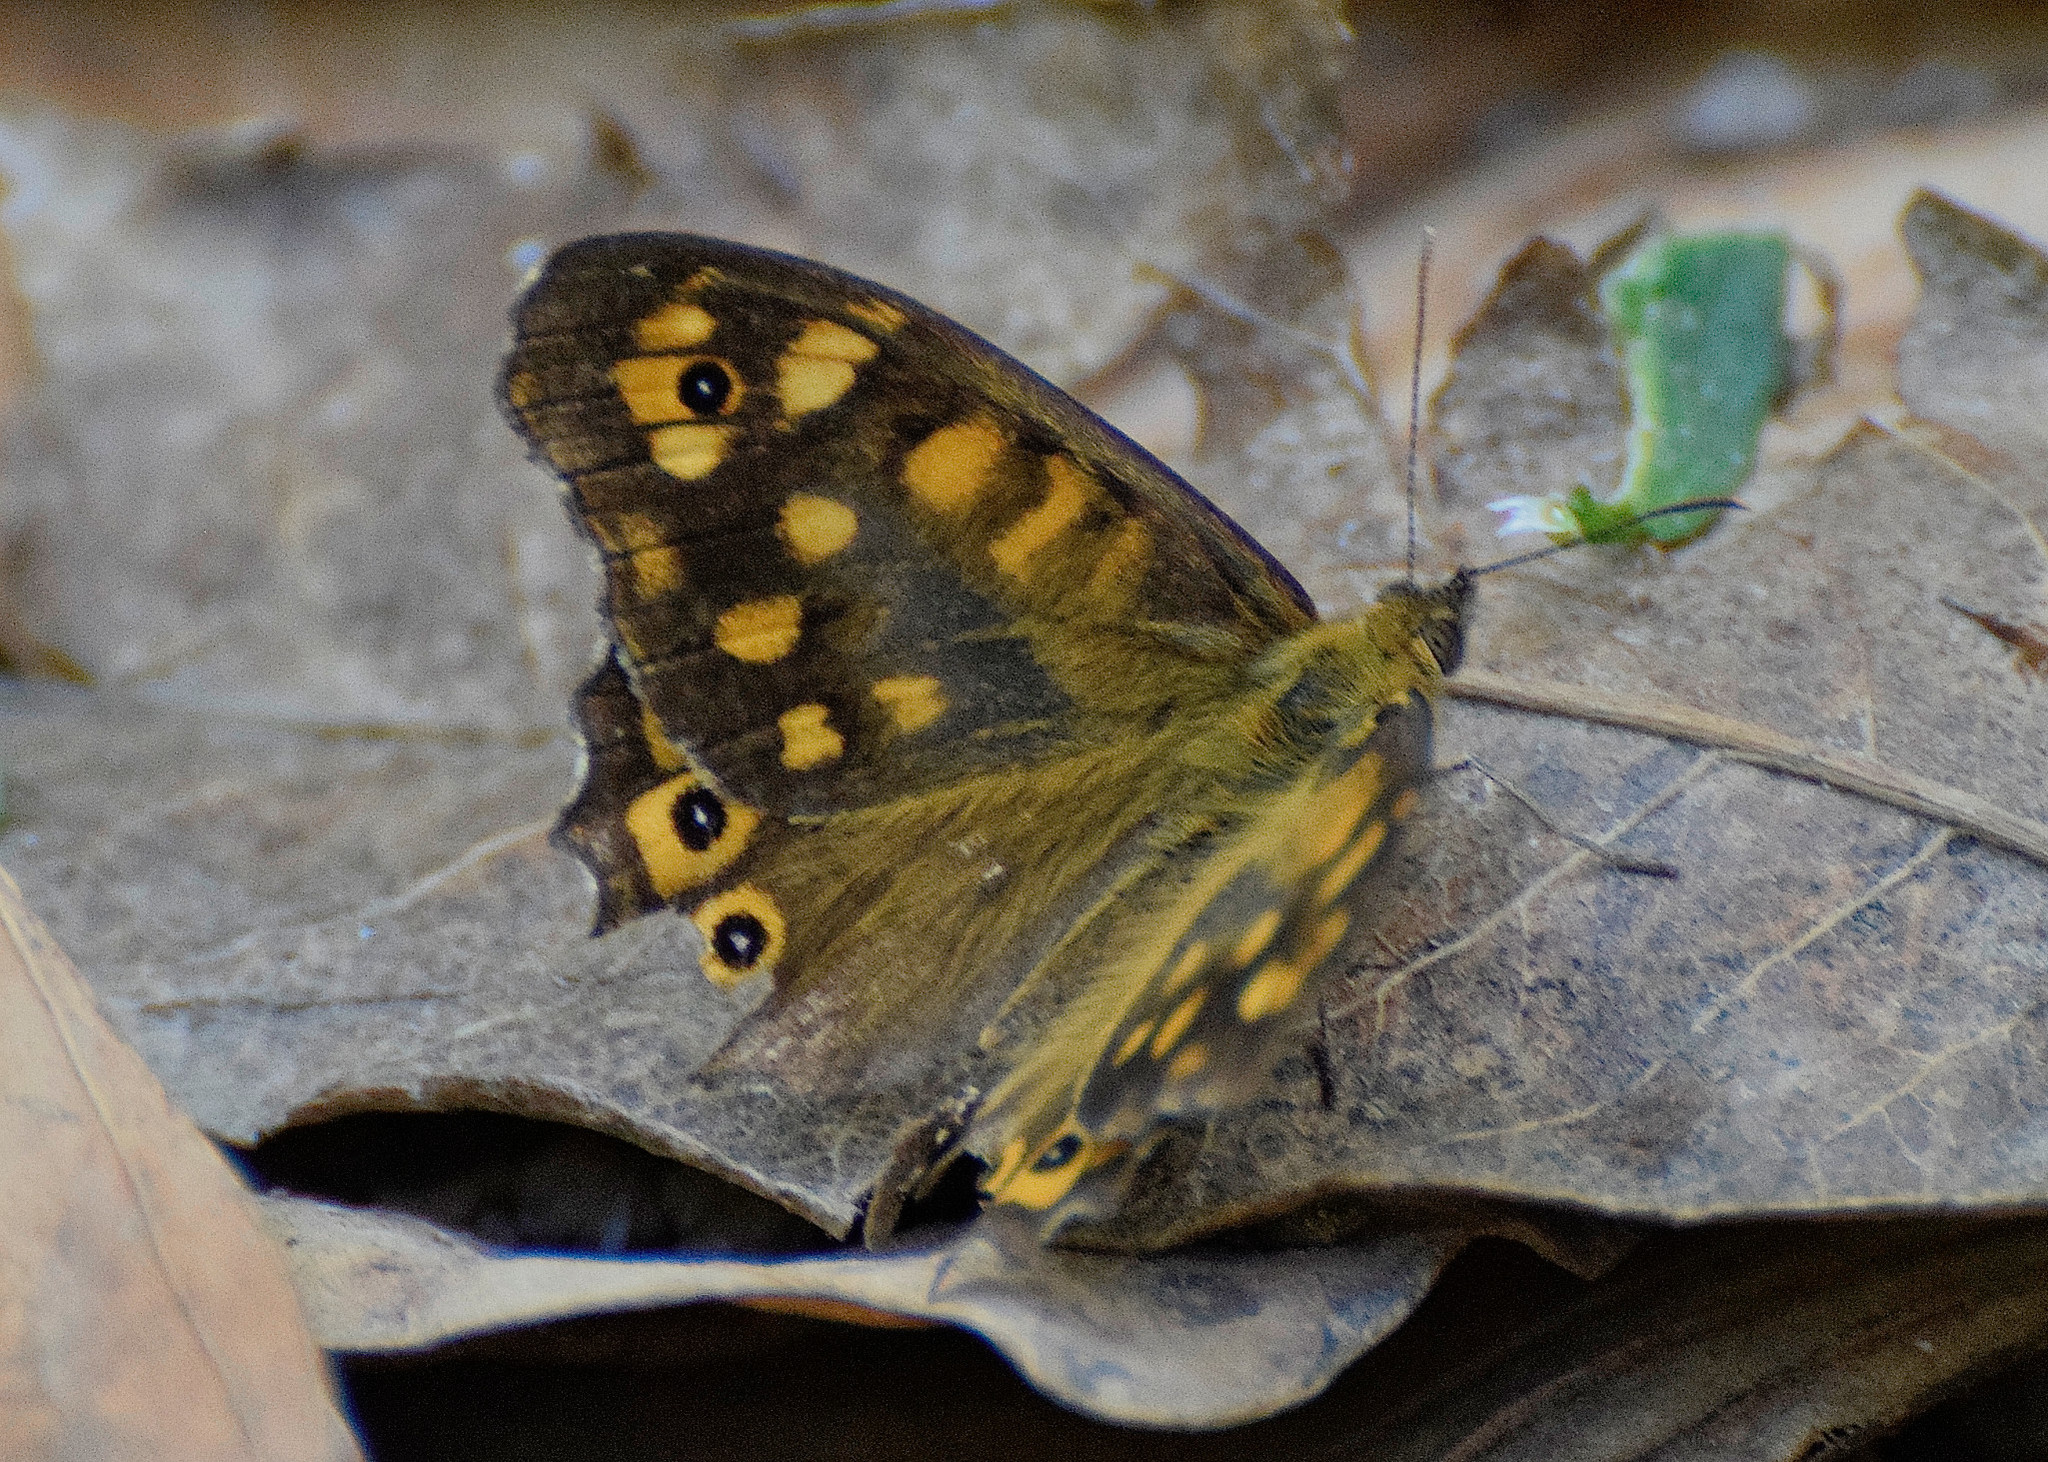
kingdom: Animalia
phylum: Arthropoda
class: Insecta
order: Lepidoptera
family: Nymphalidae
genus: Pararge
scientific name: Pararge aegeria
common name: Speckled wood
